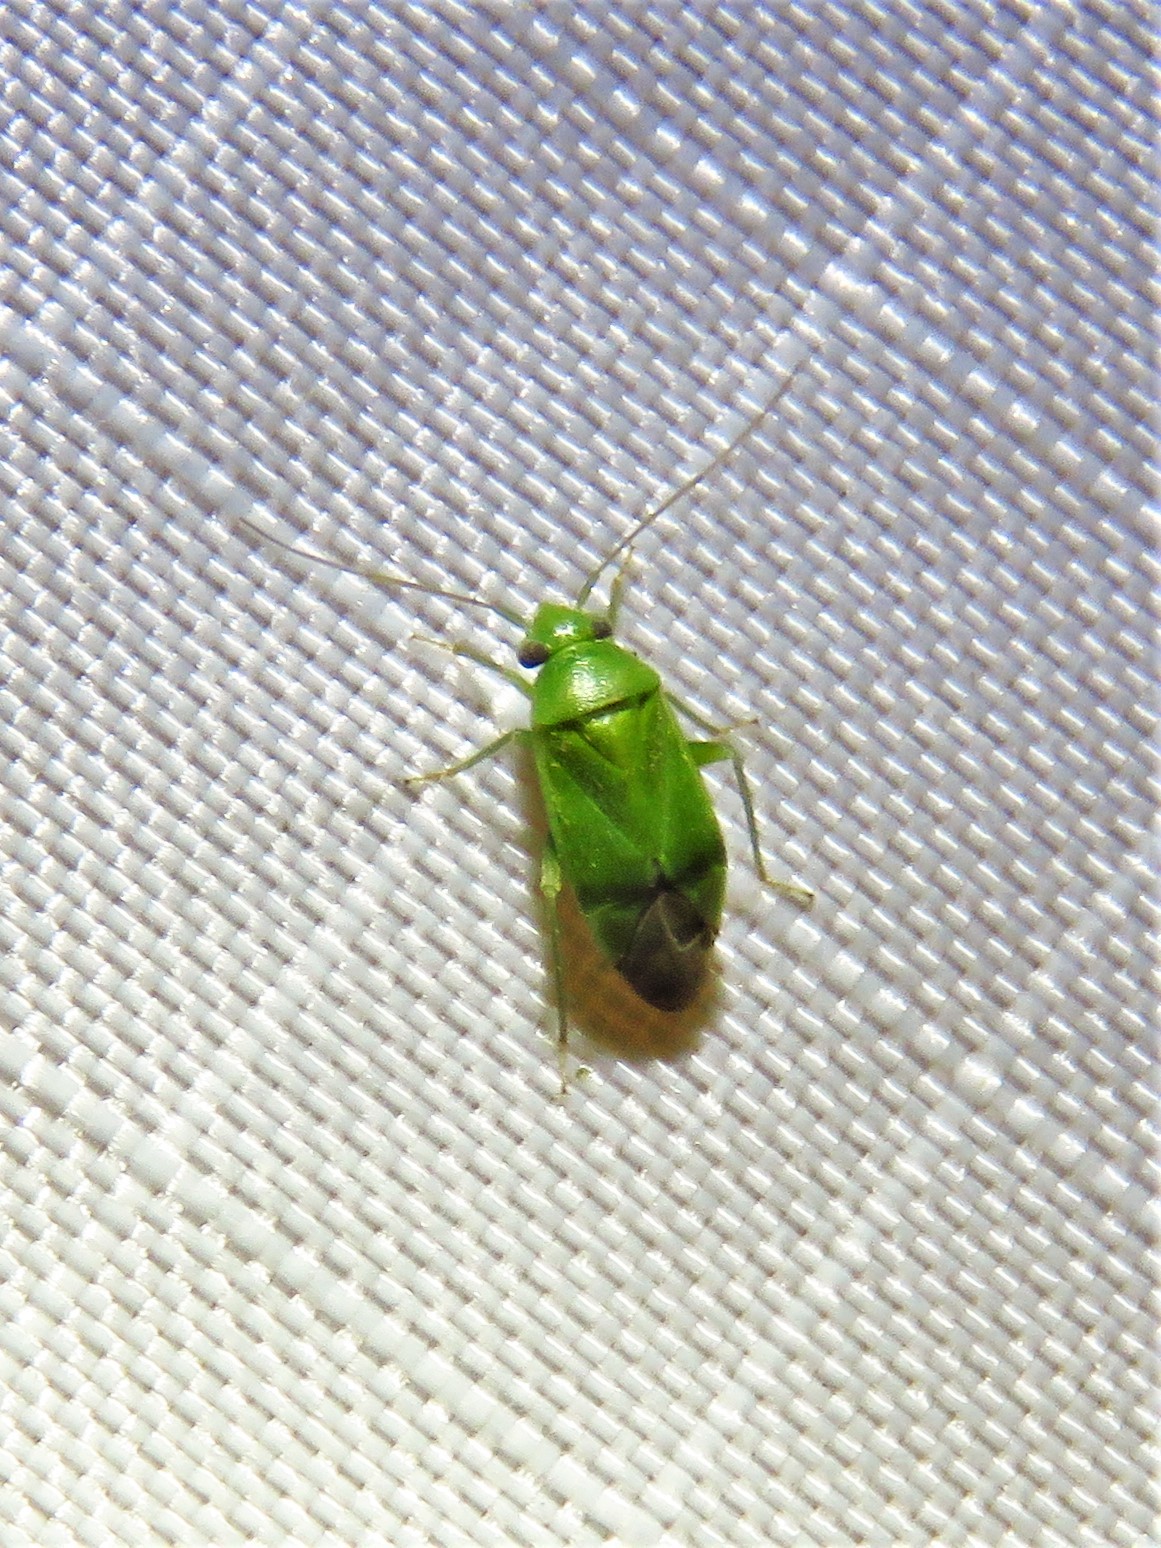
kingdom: Animalia
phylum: Arthropoda
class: Insecta
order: Hemiptera
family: Miridae
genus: Dichrooscytus
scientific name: Dichrooscytus
